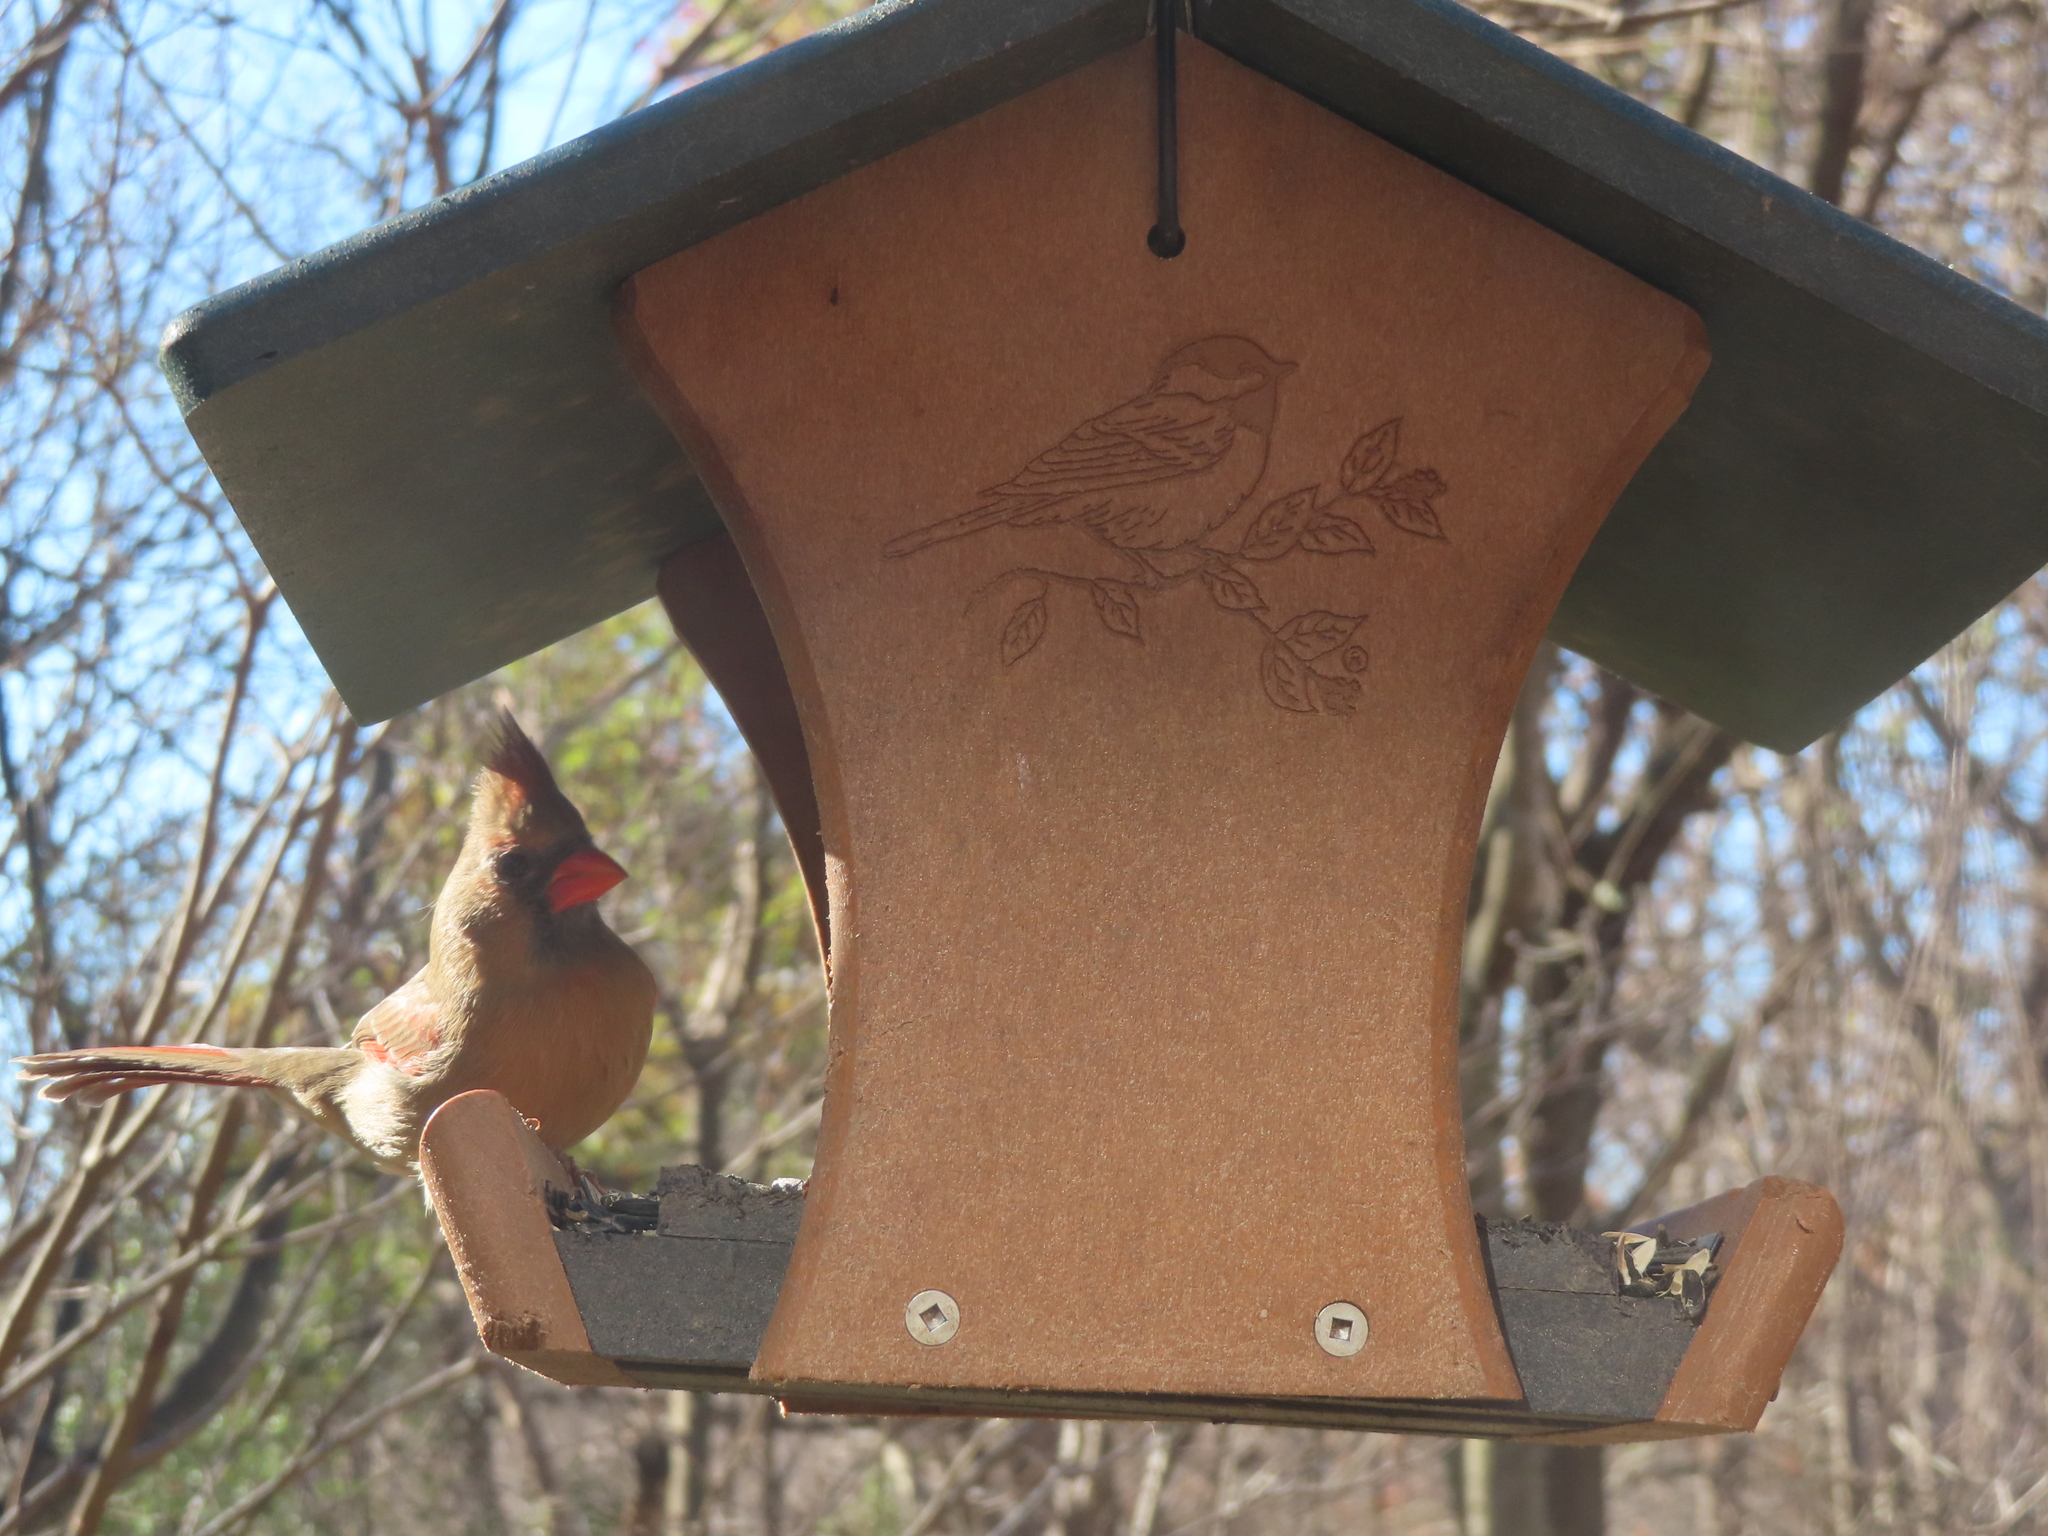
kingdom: Animalia
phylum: Chordata
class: Aves
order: Passeriformes
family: Cardinalidae
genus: Cardinalis
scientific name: Cardinalis cardinalis
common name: Northern cardinal
